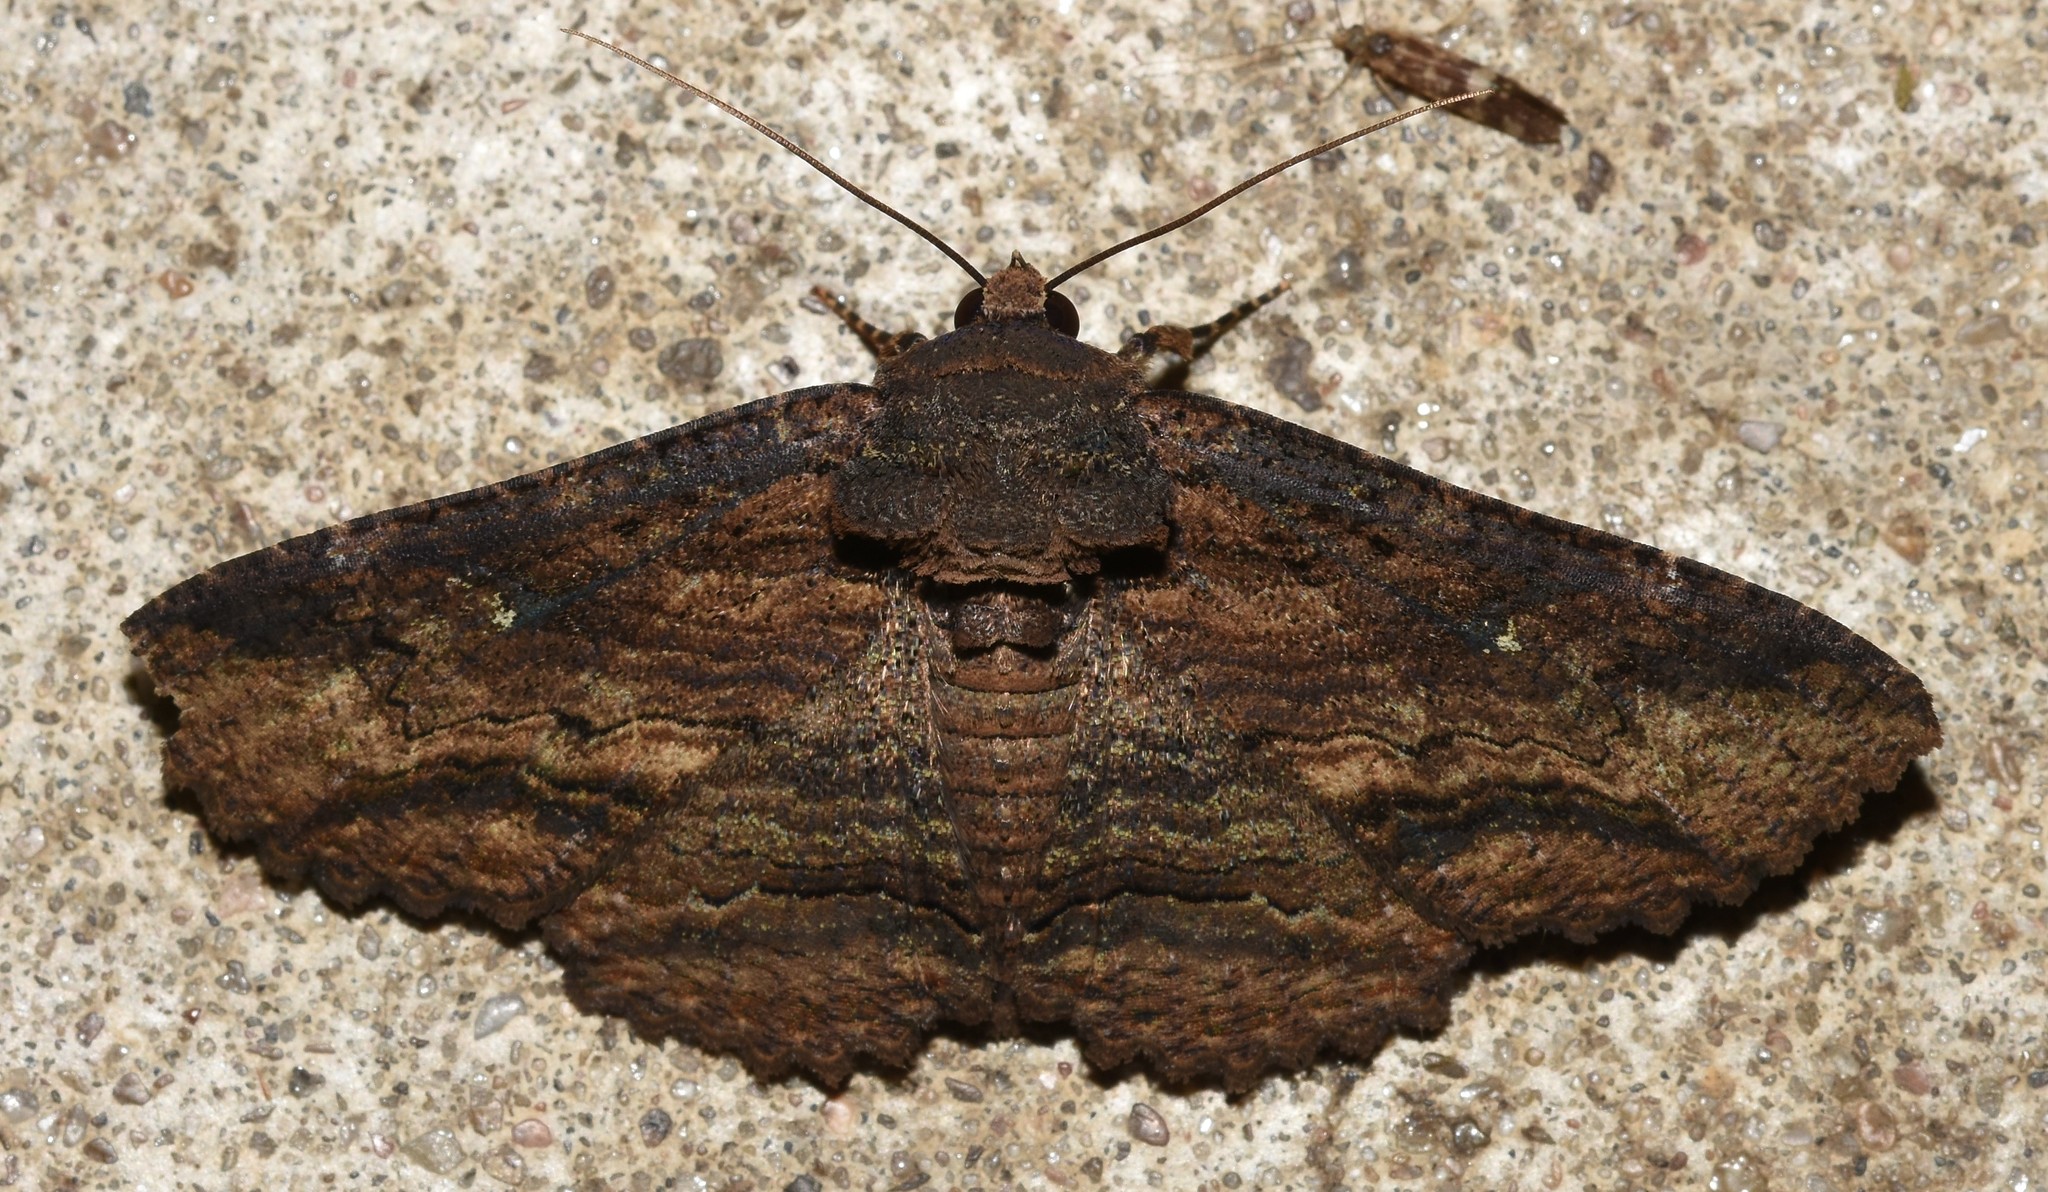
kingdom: Animalia
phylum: Arthropoda
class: Insecta
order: Lepidoptera
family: Erebidae
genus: Zale
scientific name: Zale lunata
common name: Lunate zale moth
